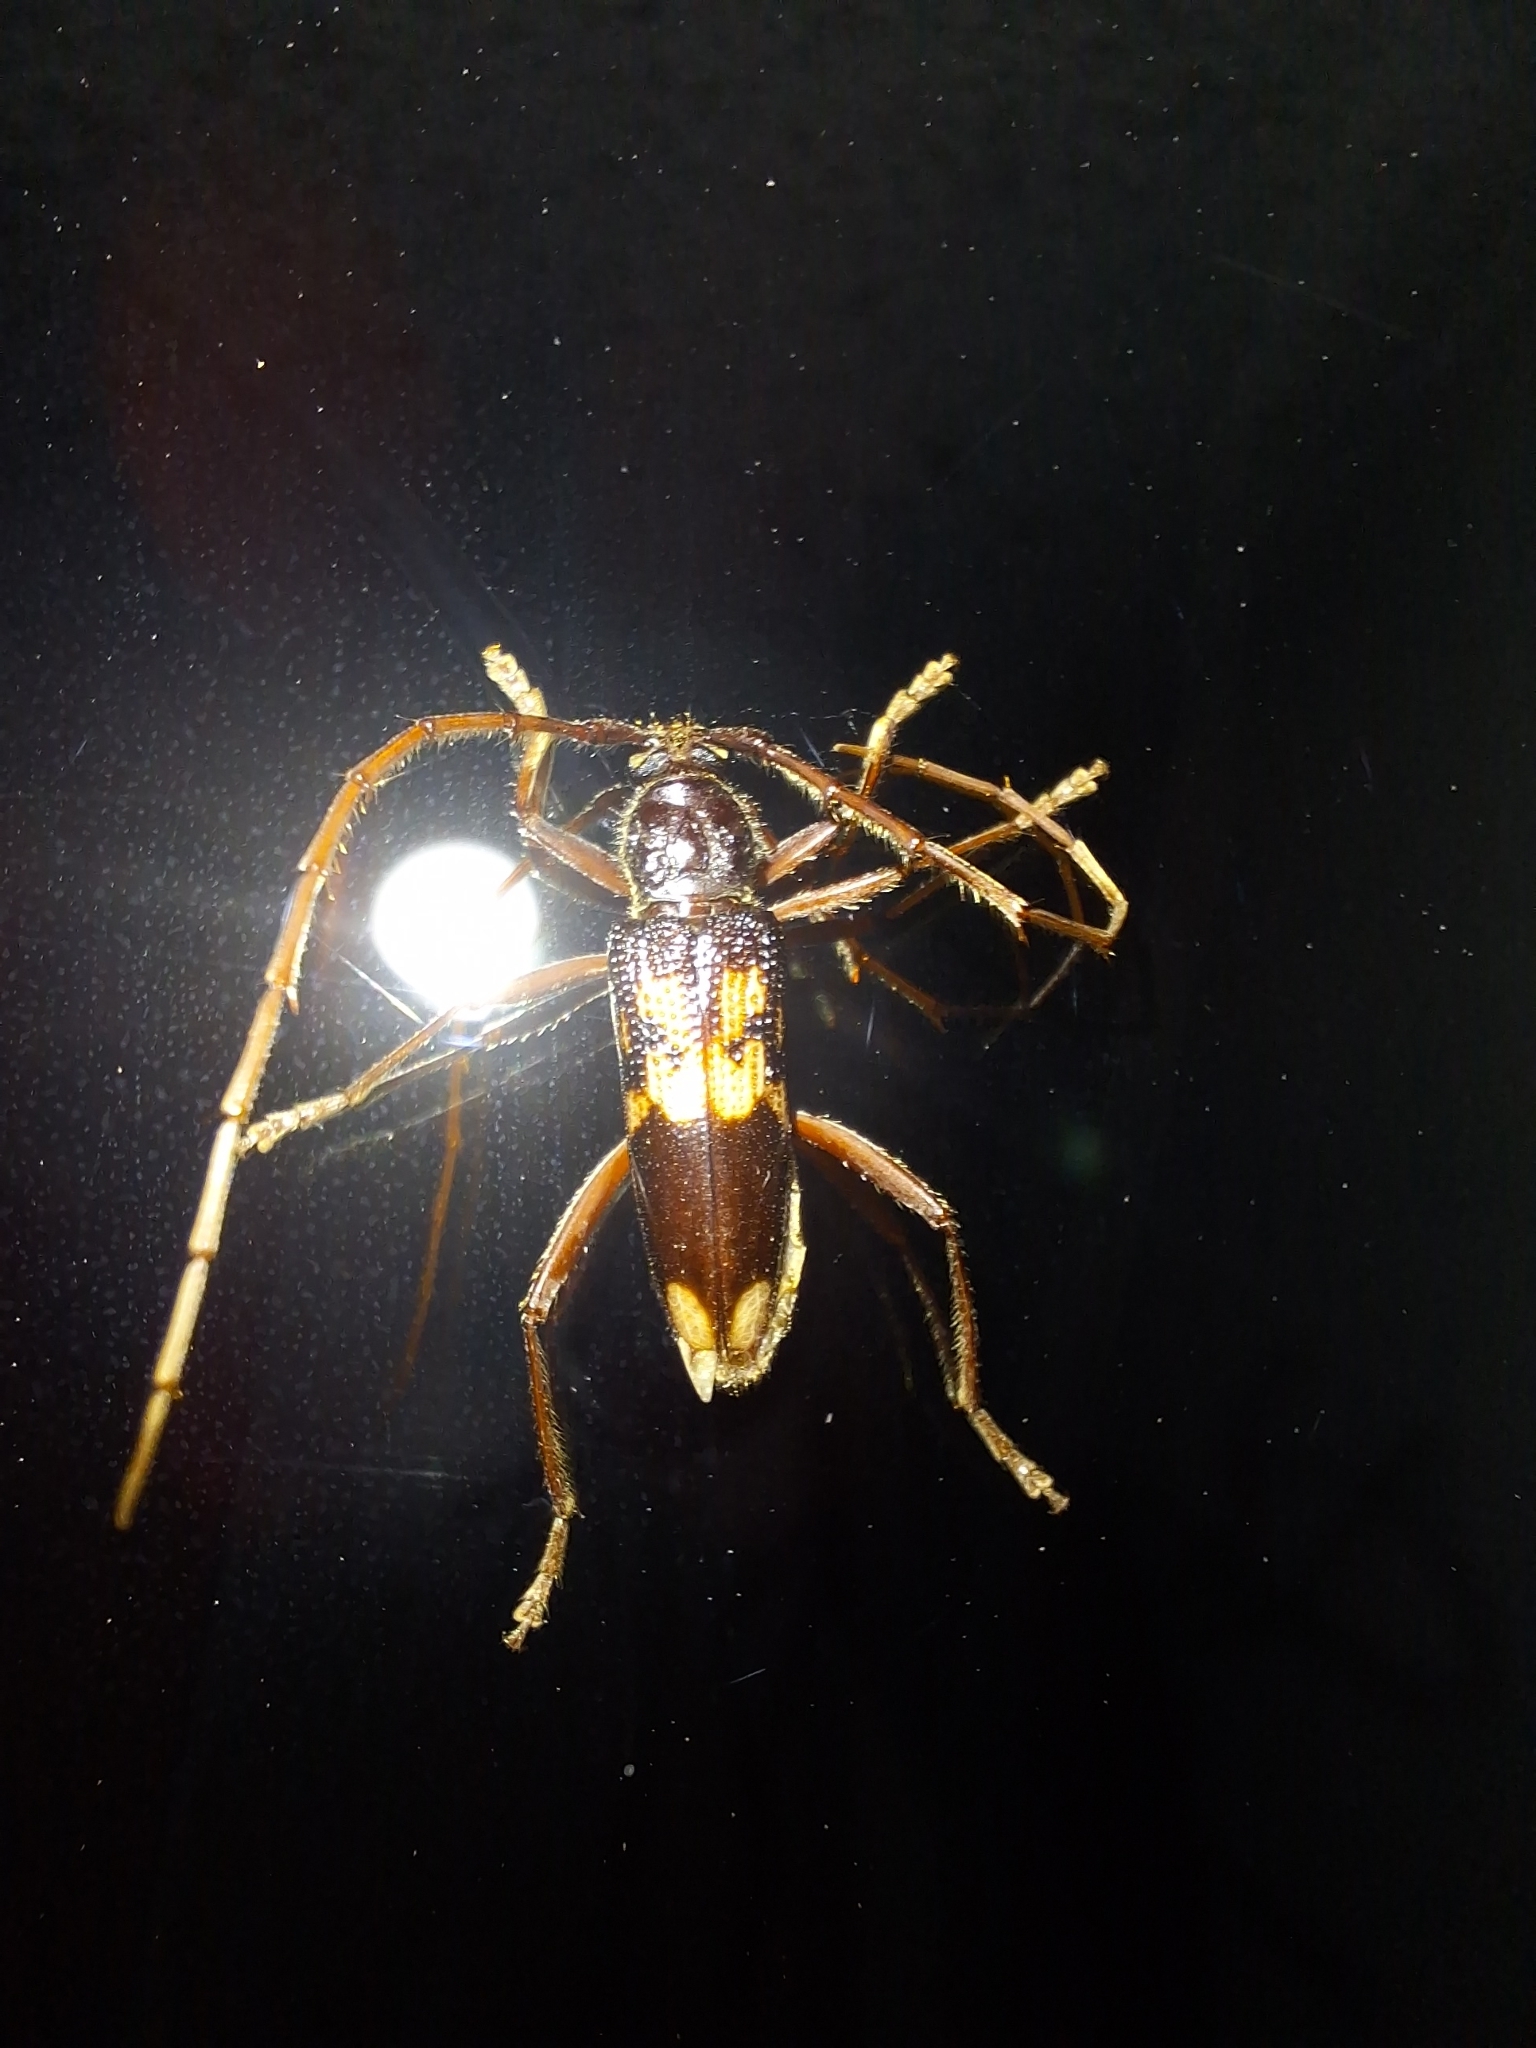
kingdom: Animalia
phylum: Arthropoda
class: Insecta
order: Coleoptera
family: Cerambycidae
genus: Phoracantha
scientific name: Phoracantha semipunctata
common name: Eucalyptus longhorn borer
